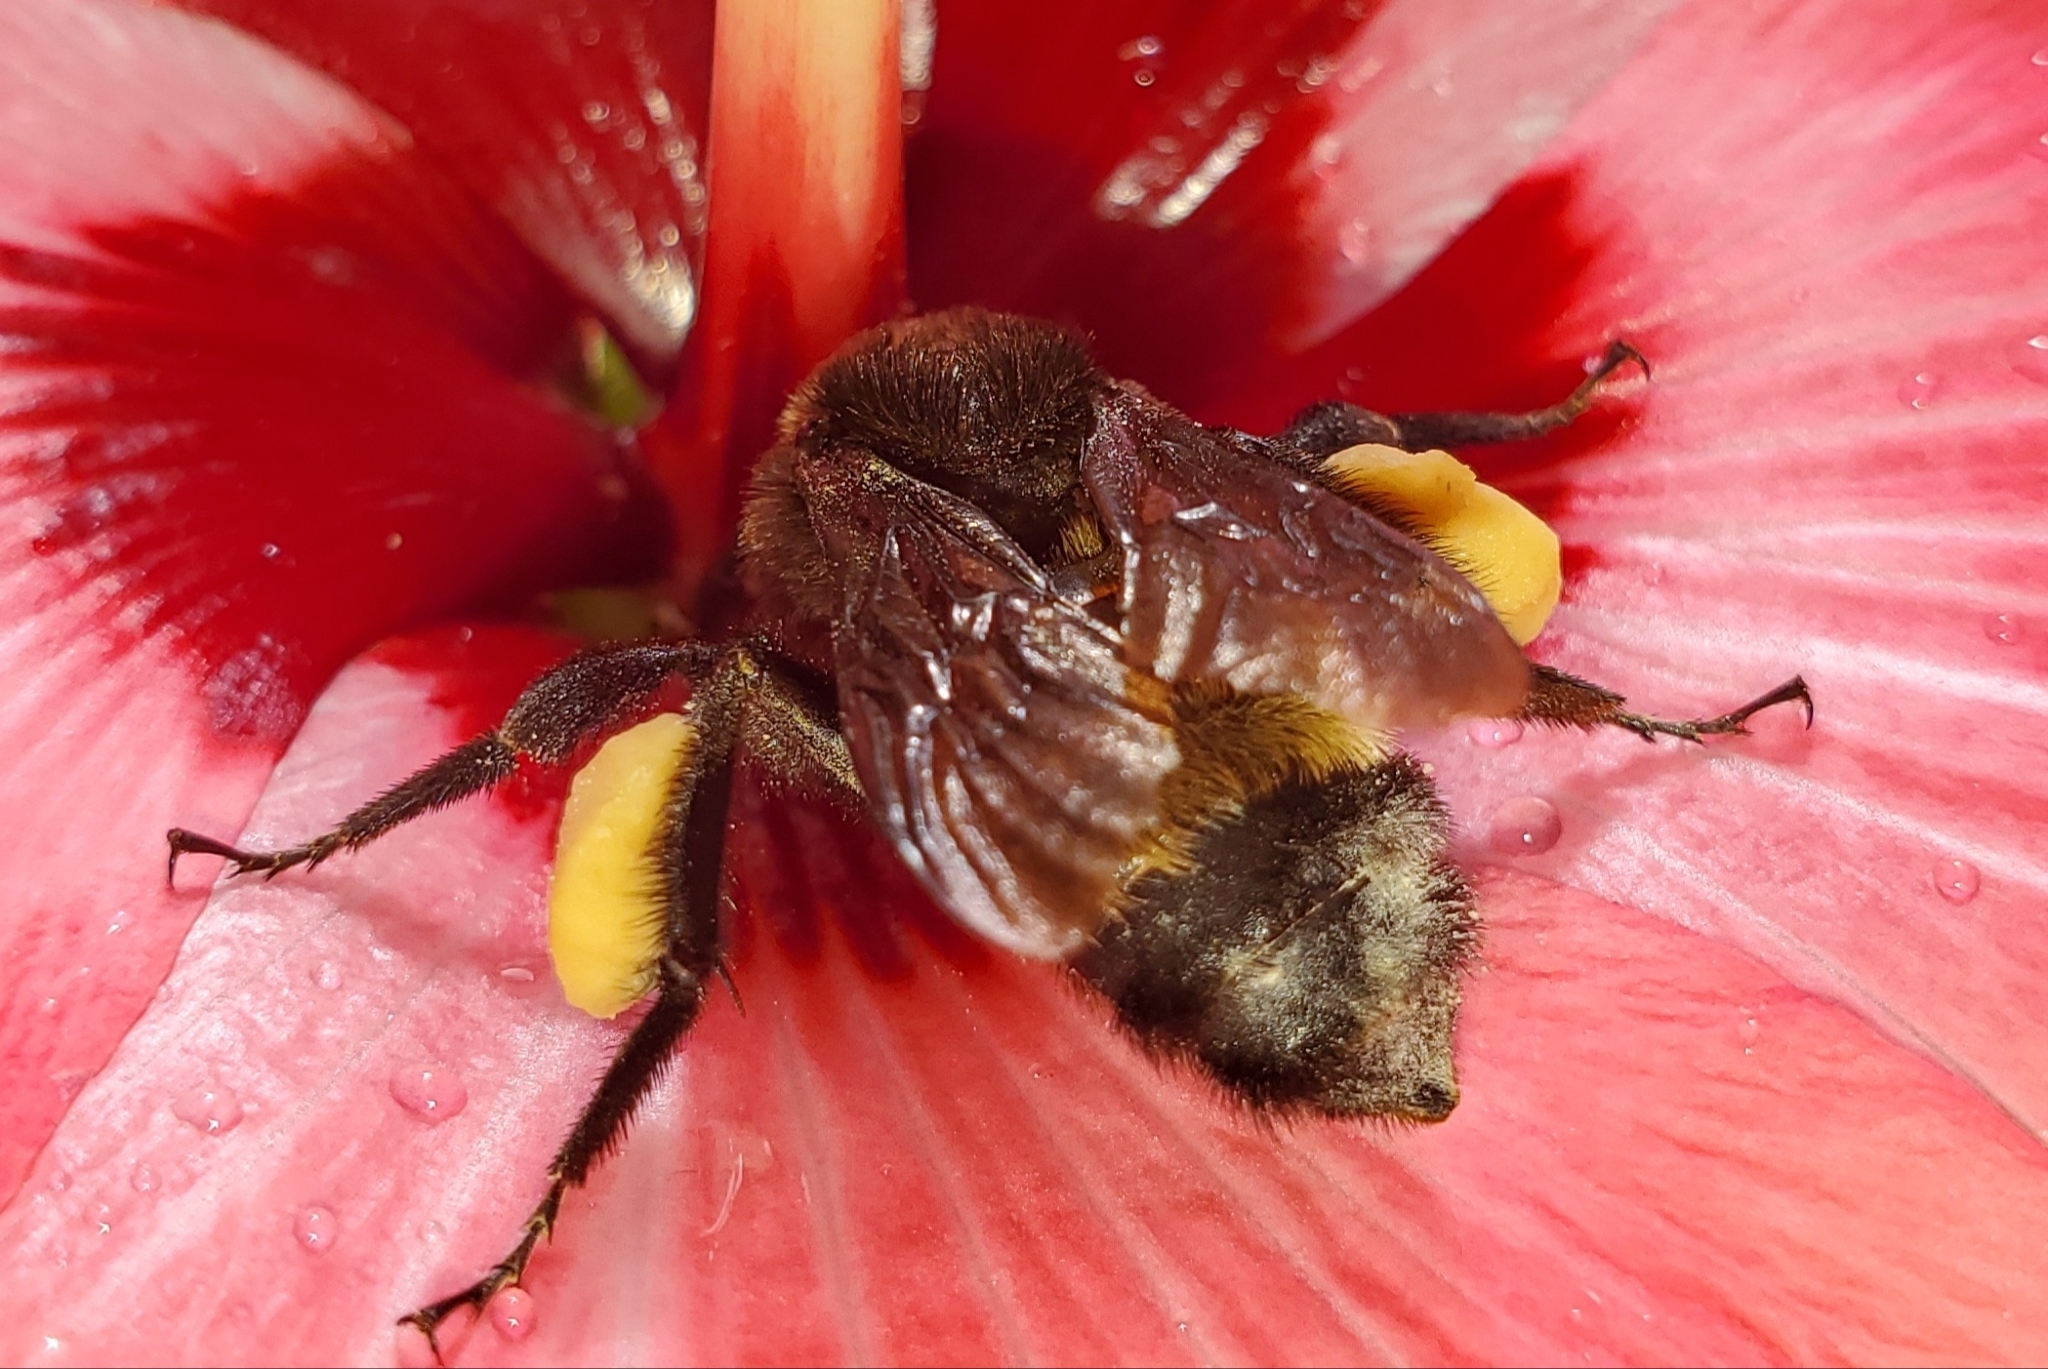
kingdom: Animalia
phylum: Arthropoda
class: Insecta
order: Hymenoptera
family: Apidae
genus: Bombus
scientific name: Bombus pensylvanicus
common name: Bumble bee
